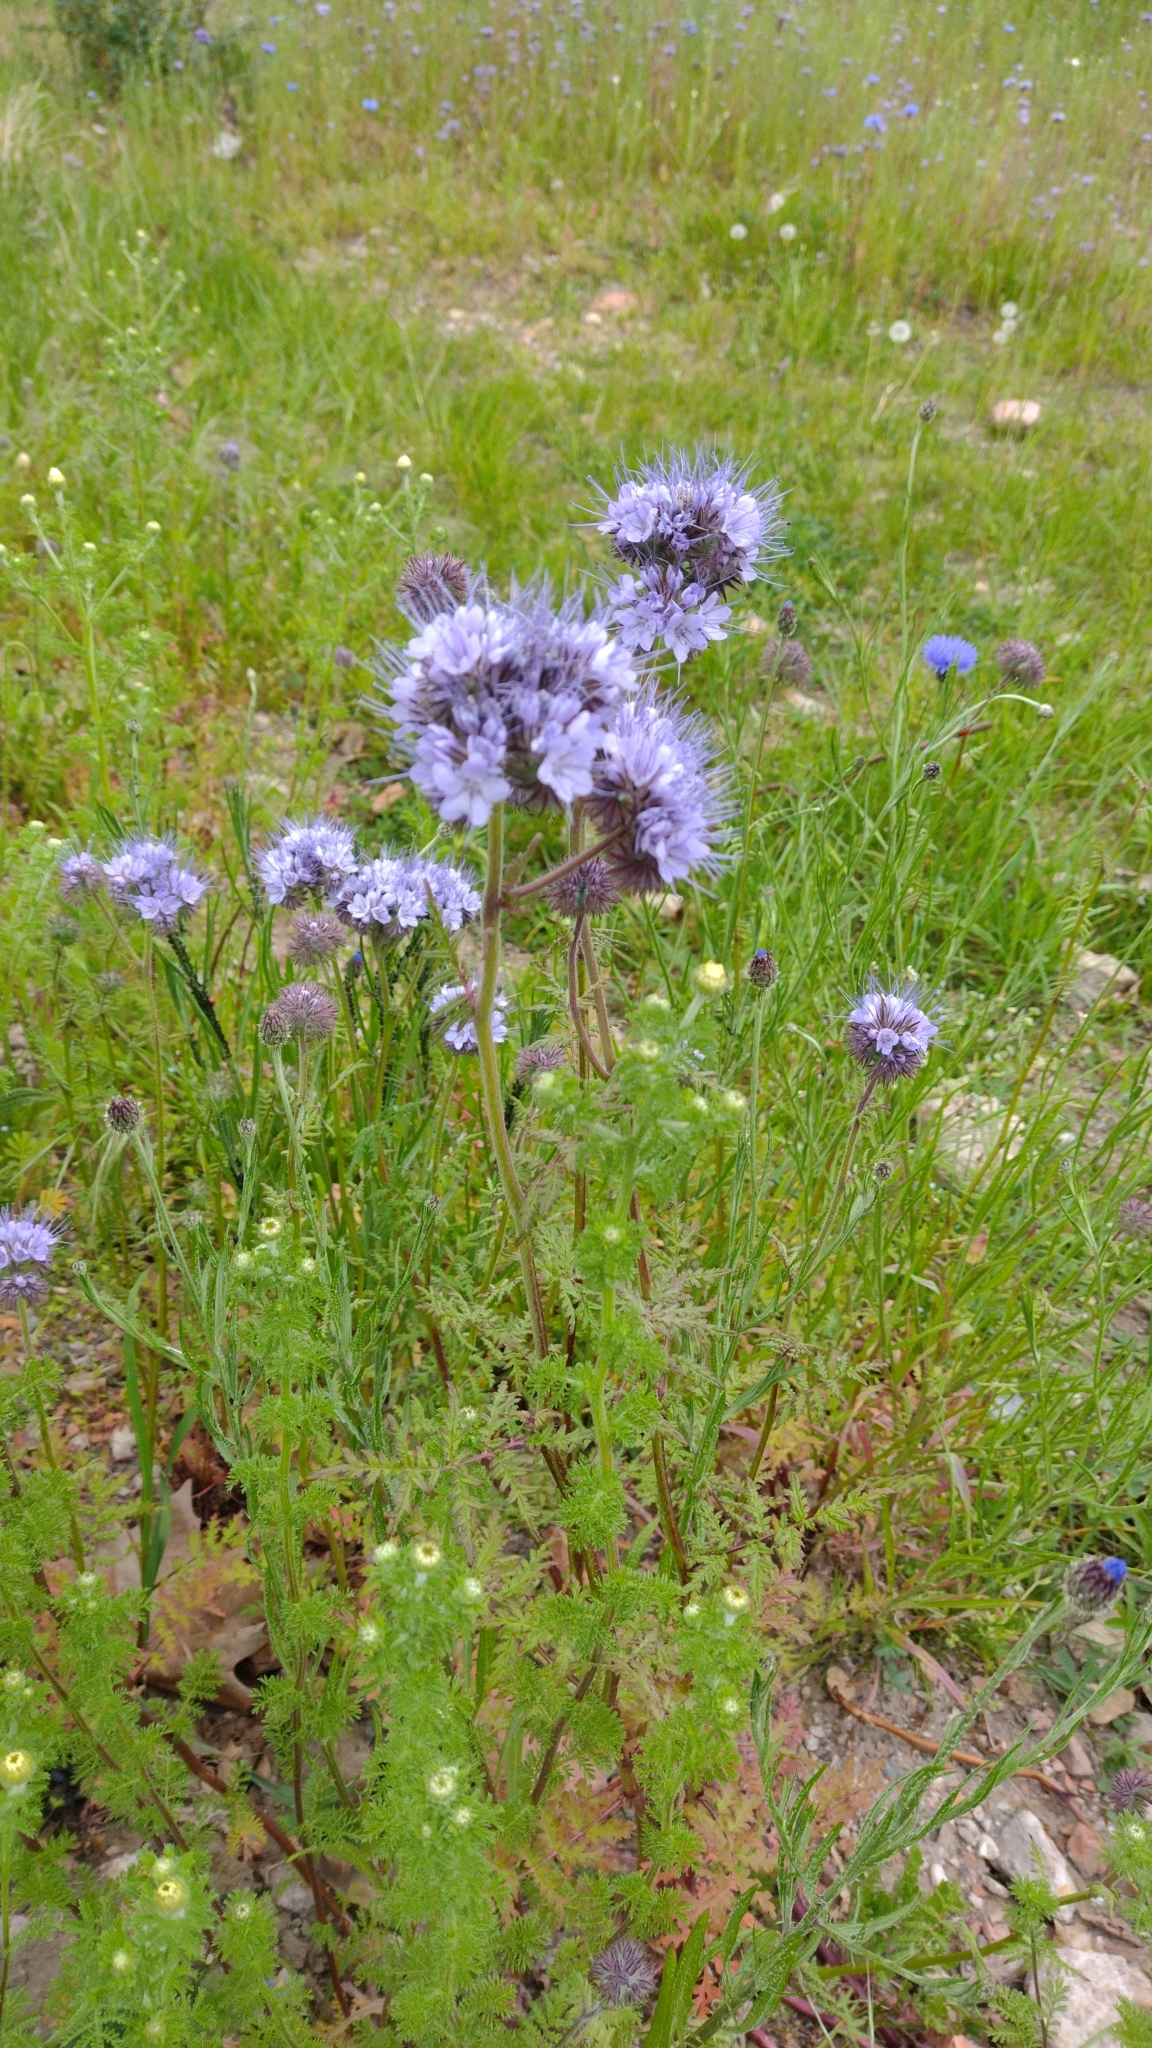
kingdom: Plantae
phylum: Tracheophyta
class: Magnoliopsida
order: Boraginales
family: Hydrophyllaceae
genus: Phacelia
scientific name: Phacelia tanacetifolia
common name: Phacelia
